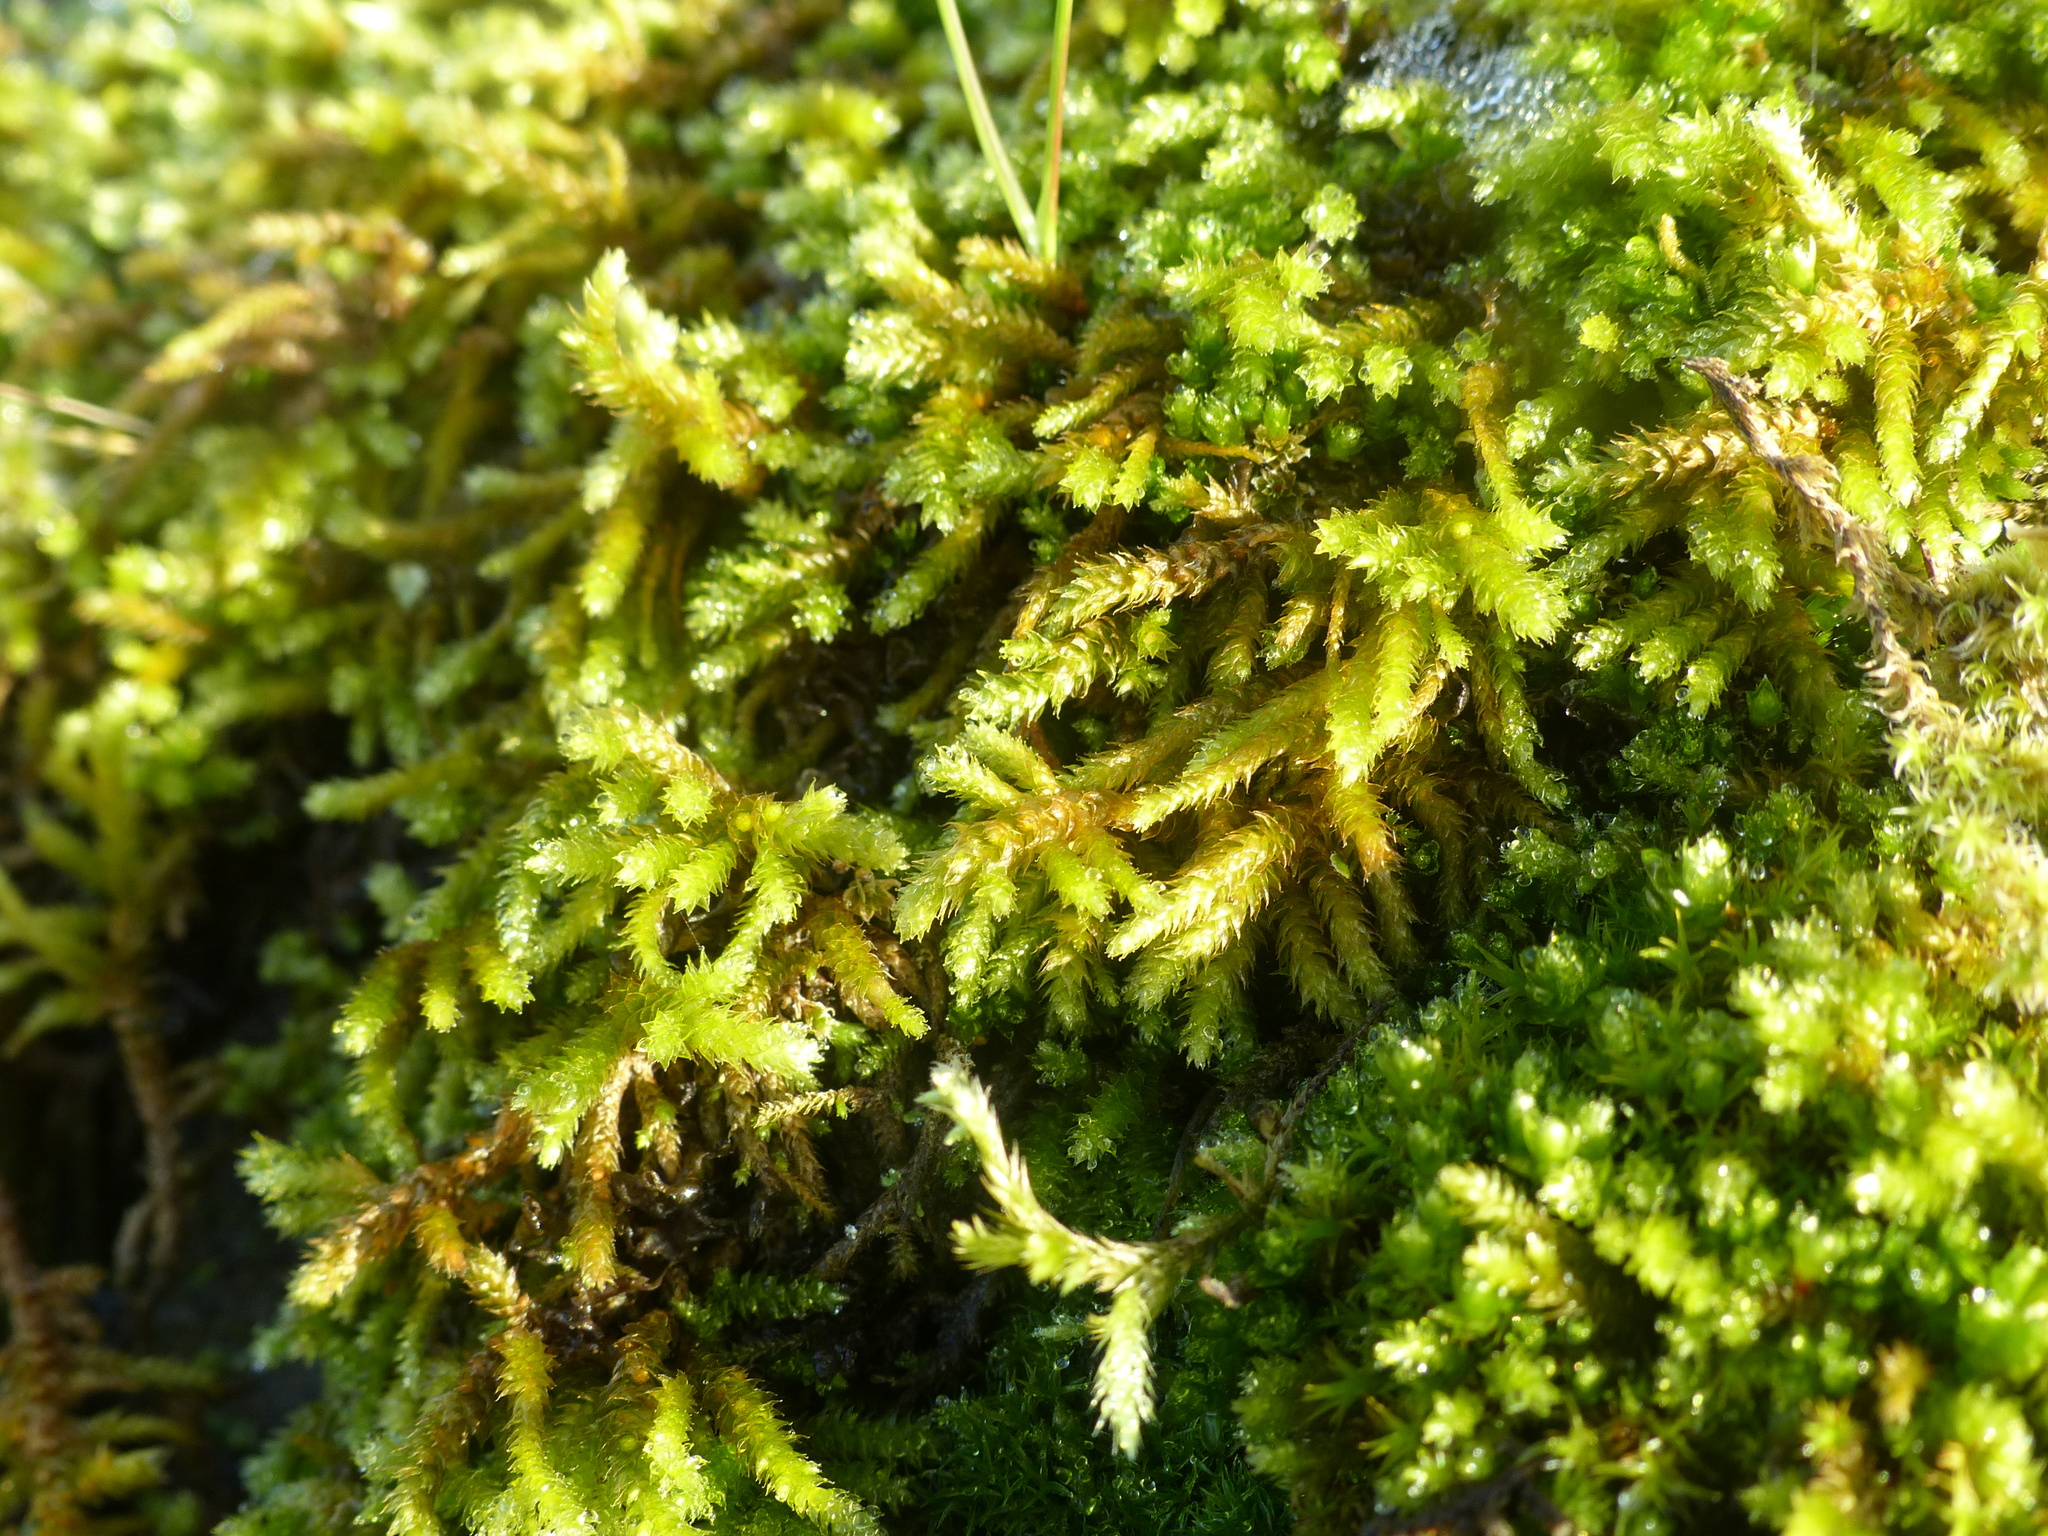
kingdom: Plantae
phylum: Bryophyta
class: Bryopsida
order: Hypnales
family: Antitrichiaceae
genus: Antitrichia
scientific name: Antitrichia californica
